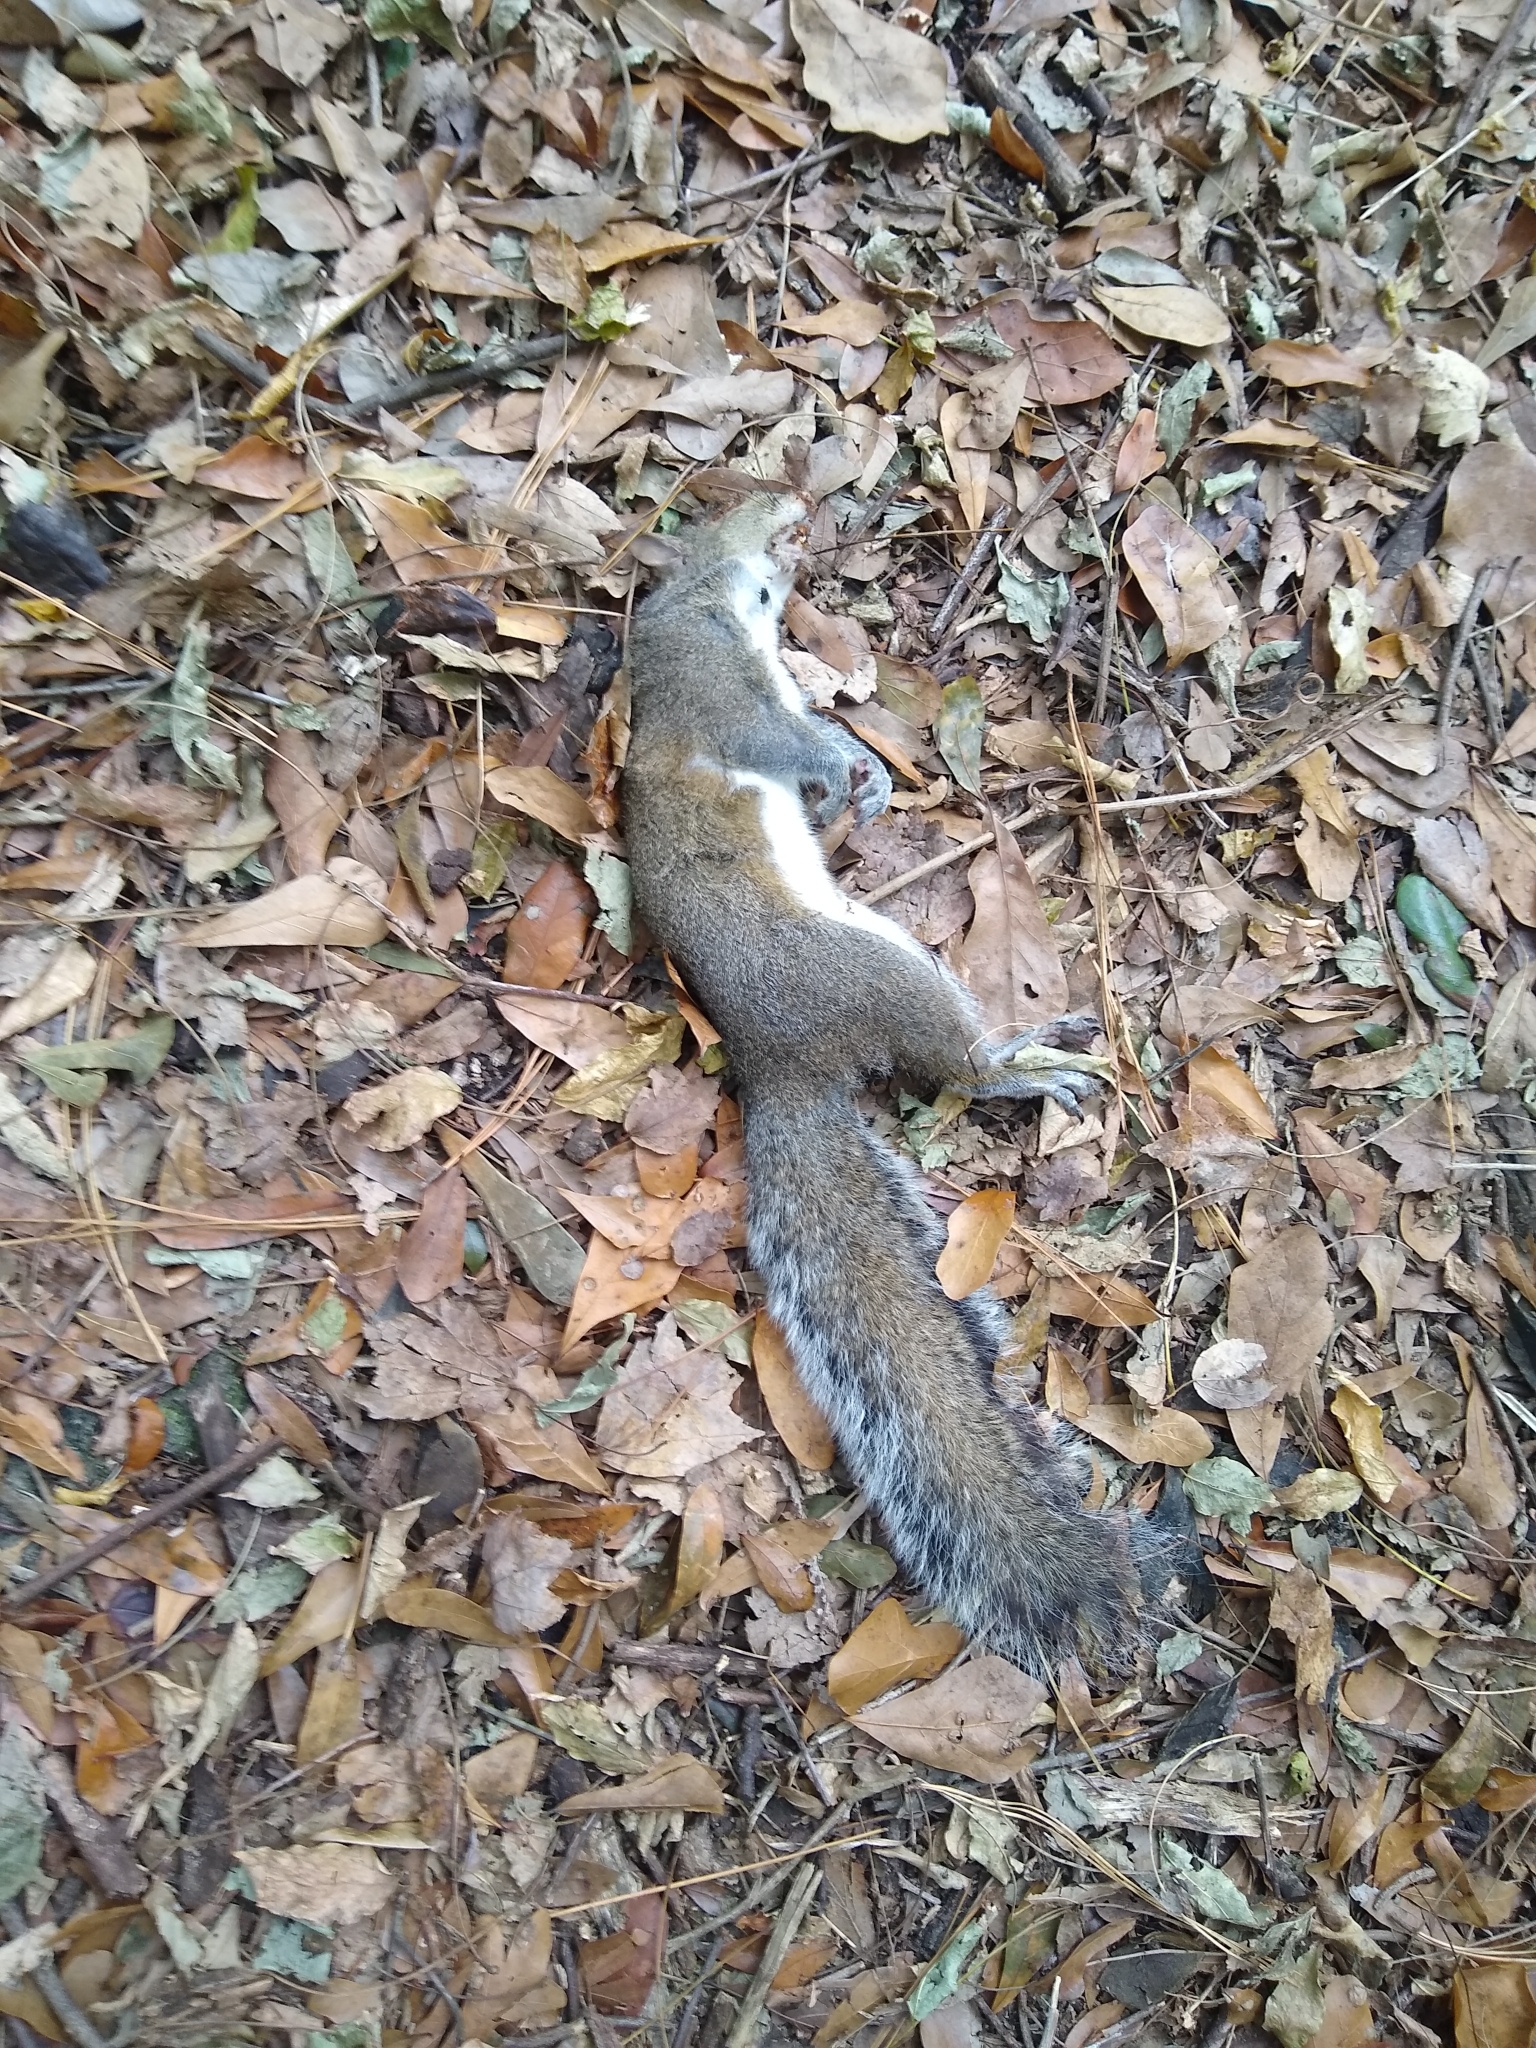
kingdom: Animalia
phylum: Chordata
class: Mammalia
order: Rodentia
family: Sciuridae
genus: Sciurus
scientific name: Sciurus carolinensis
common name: Eastern gray squirrel
